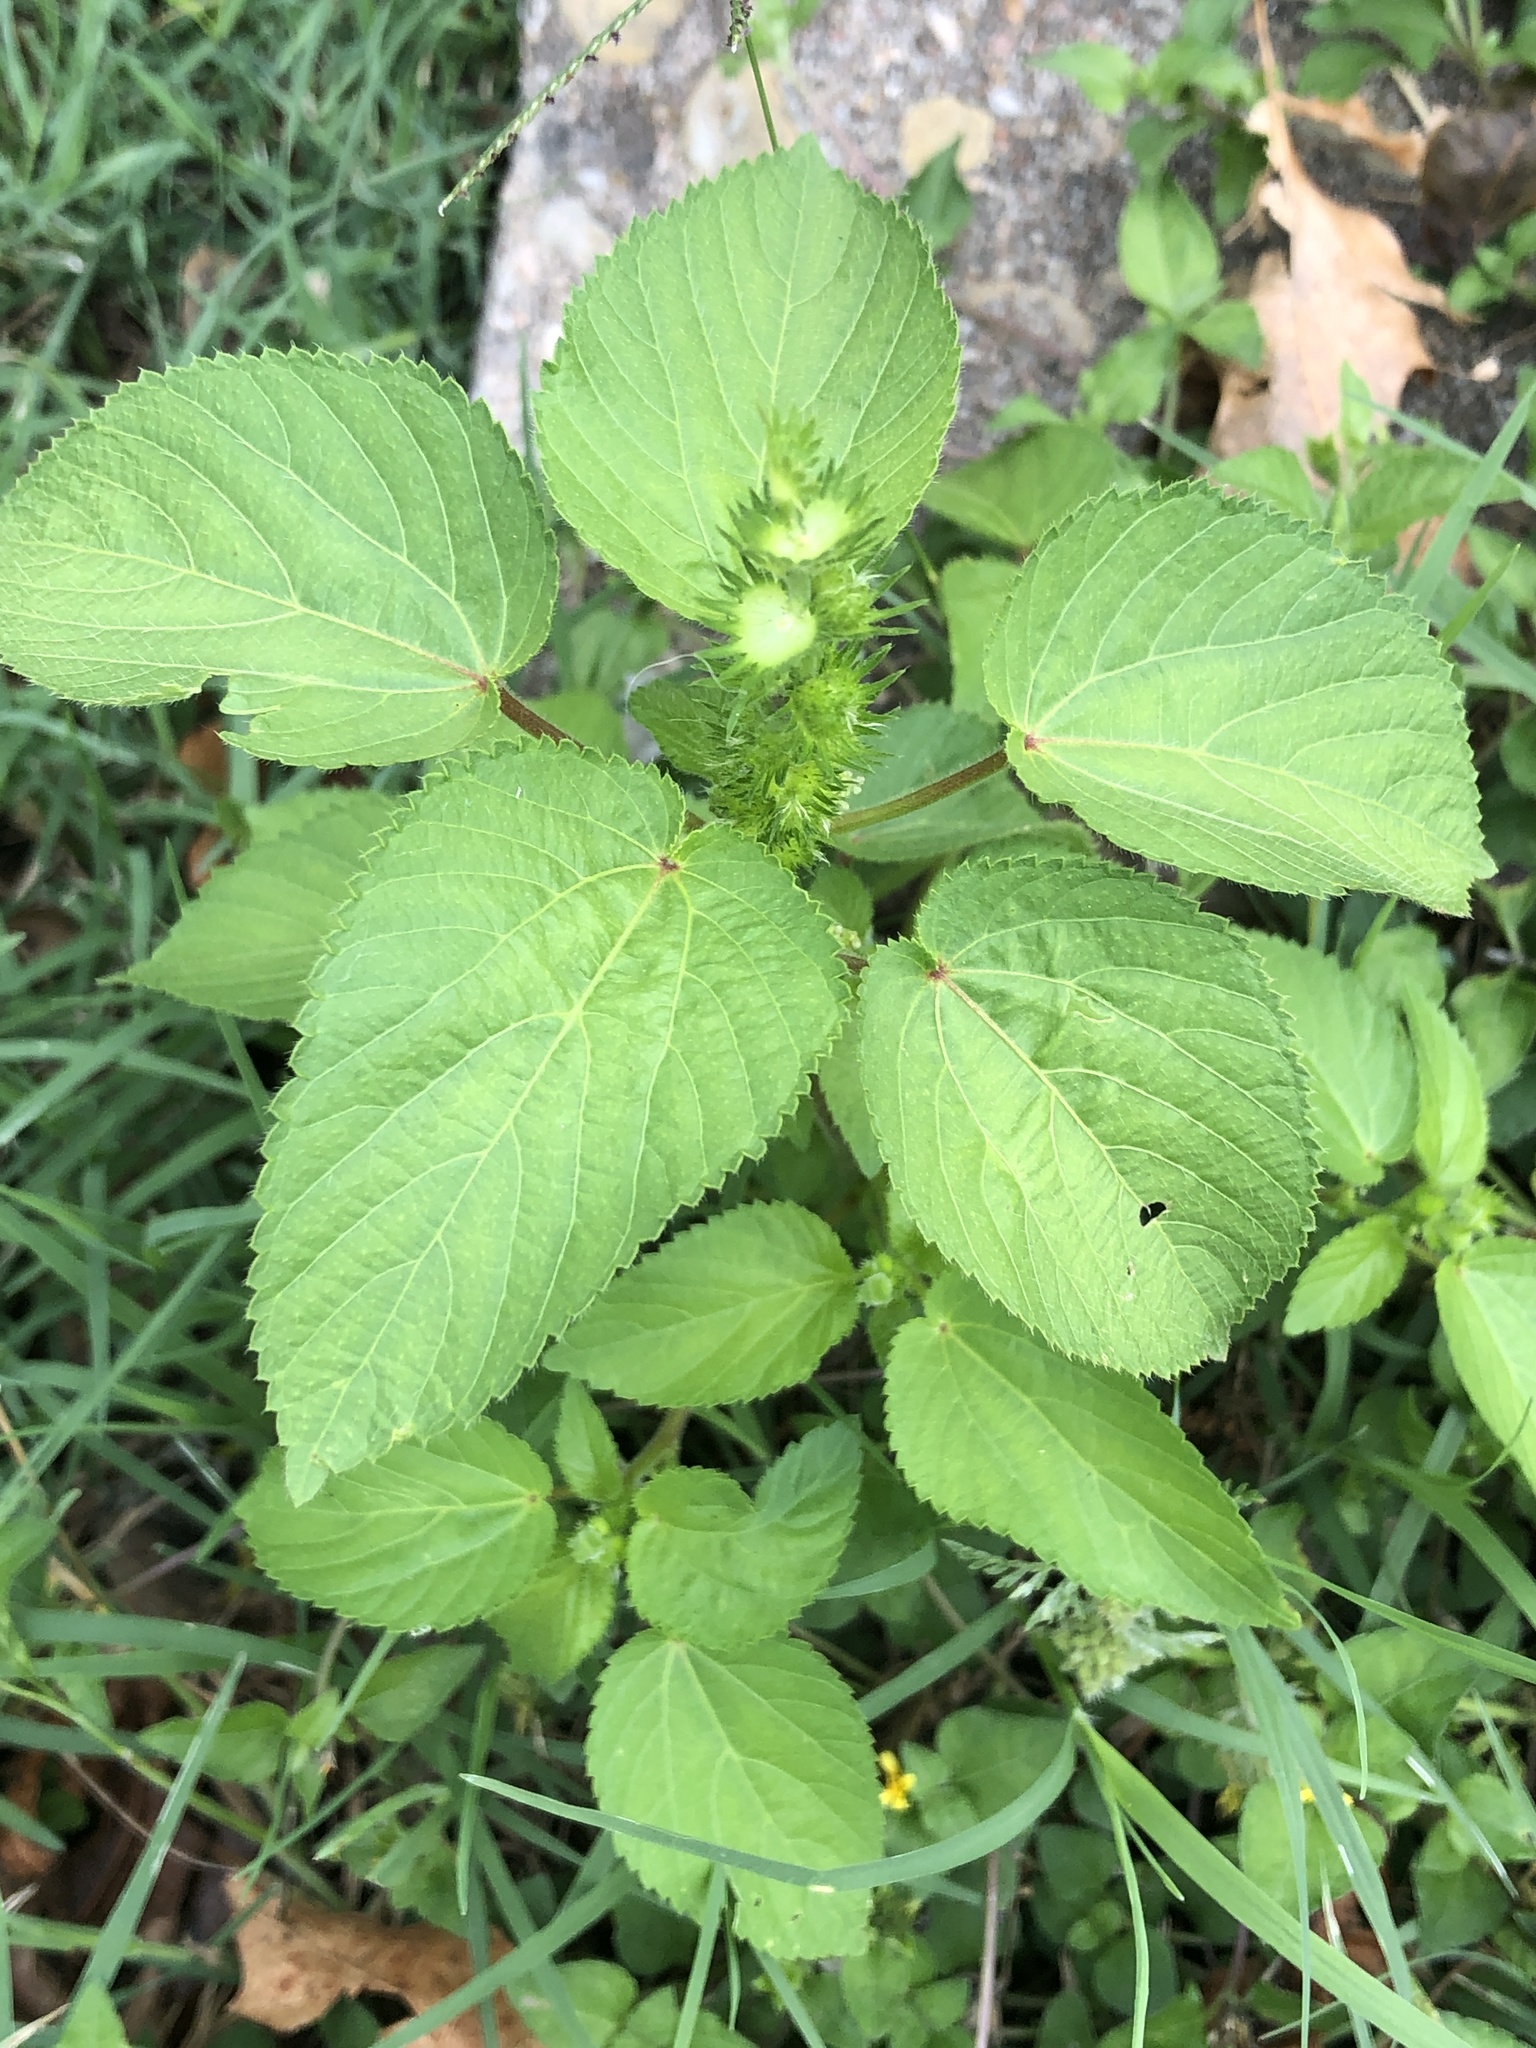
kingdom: Plantae
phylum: Tracheophyta
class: Magnoliopsida
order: Malpighiales
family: Euphorbiaceae
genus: Acalypha
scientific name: Acalypha ostryifolia
